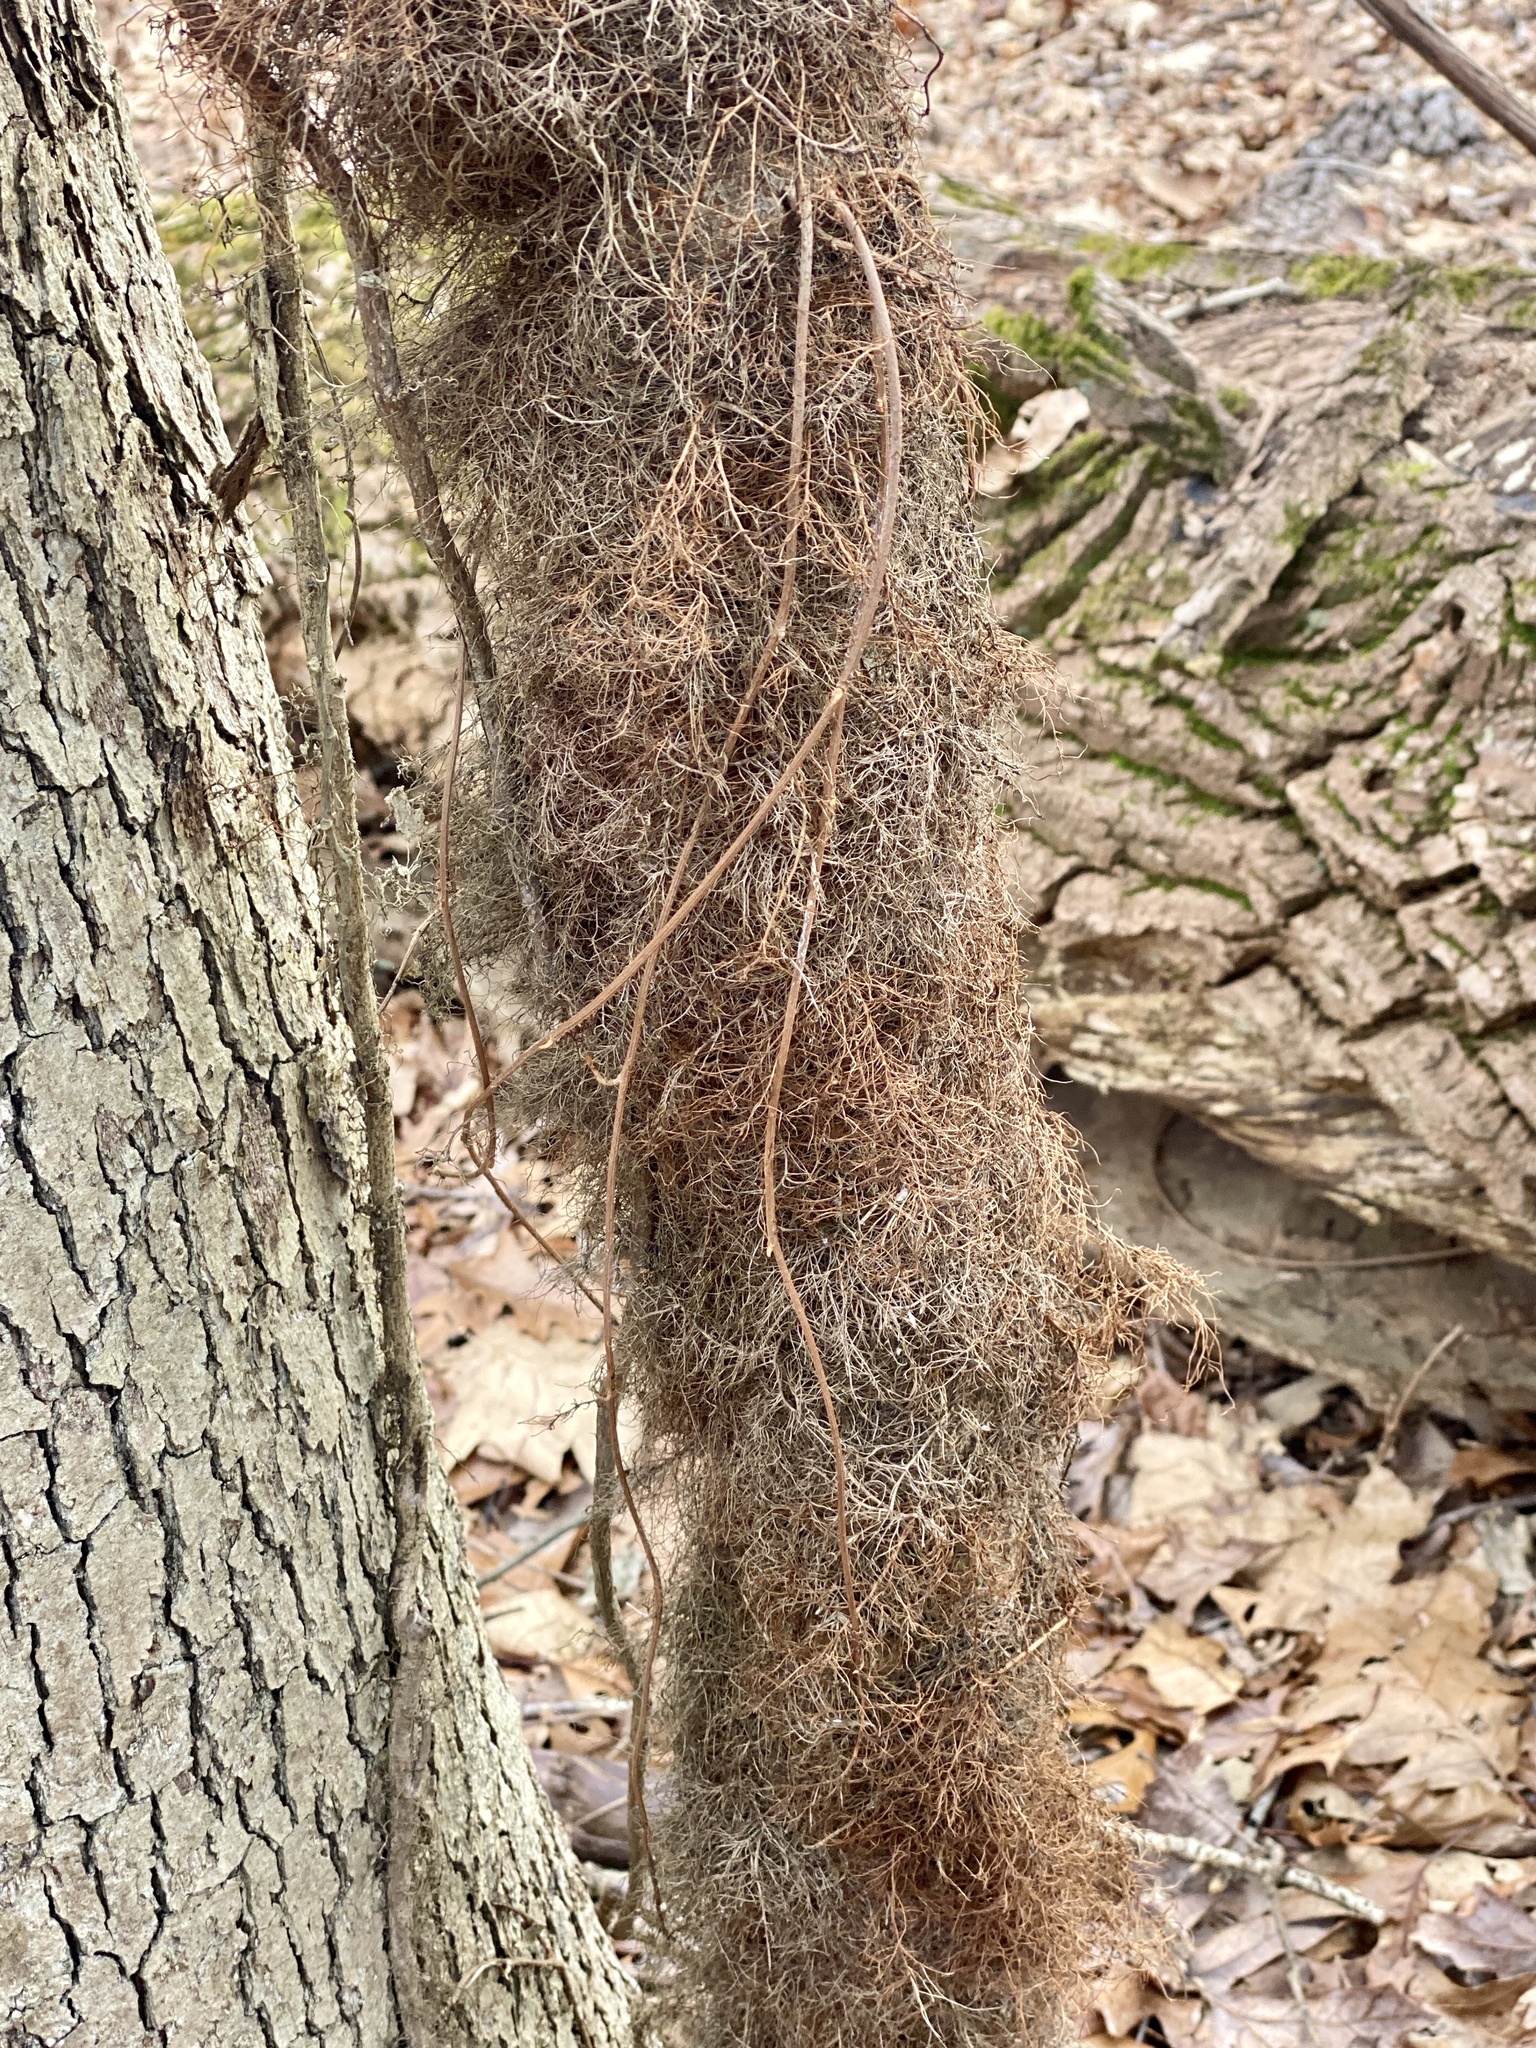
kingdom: Plantae
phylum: Tracheophyta
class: Magnoliopsida
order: Sapindales
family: Anacardiaceae
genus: Toxicodendron
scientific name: Toxicodendron radicans
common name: Poison ivy
